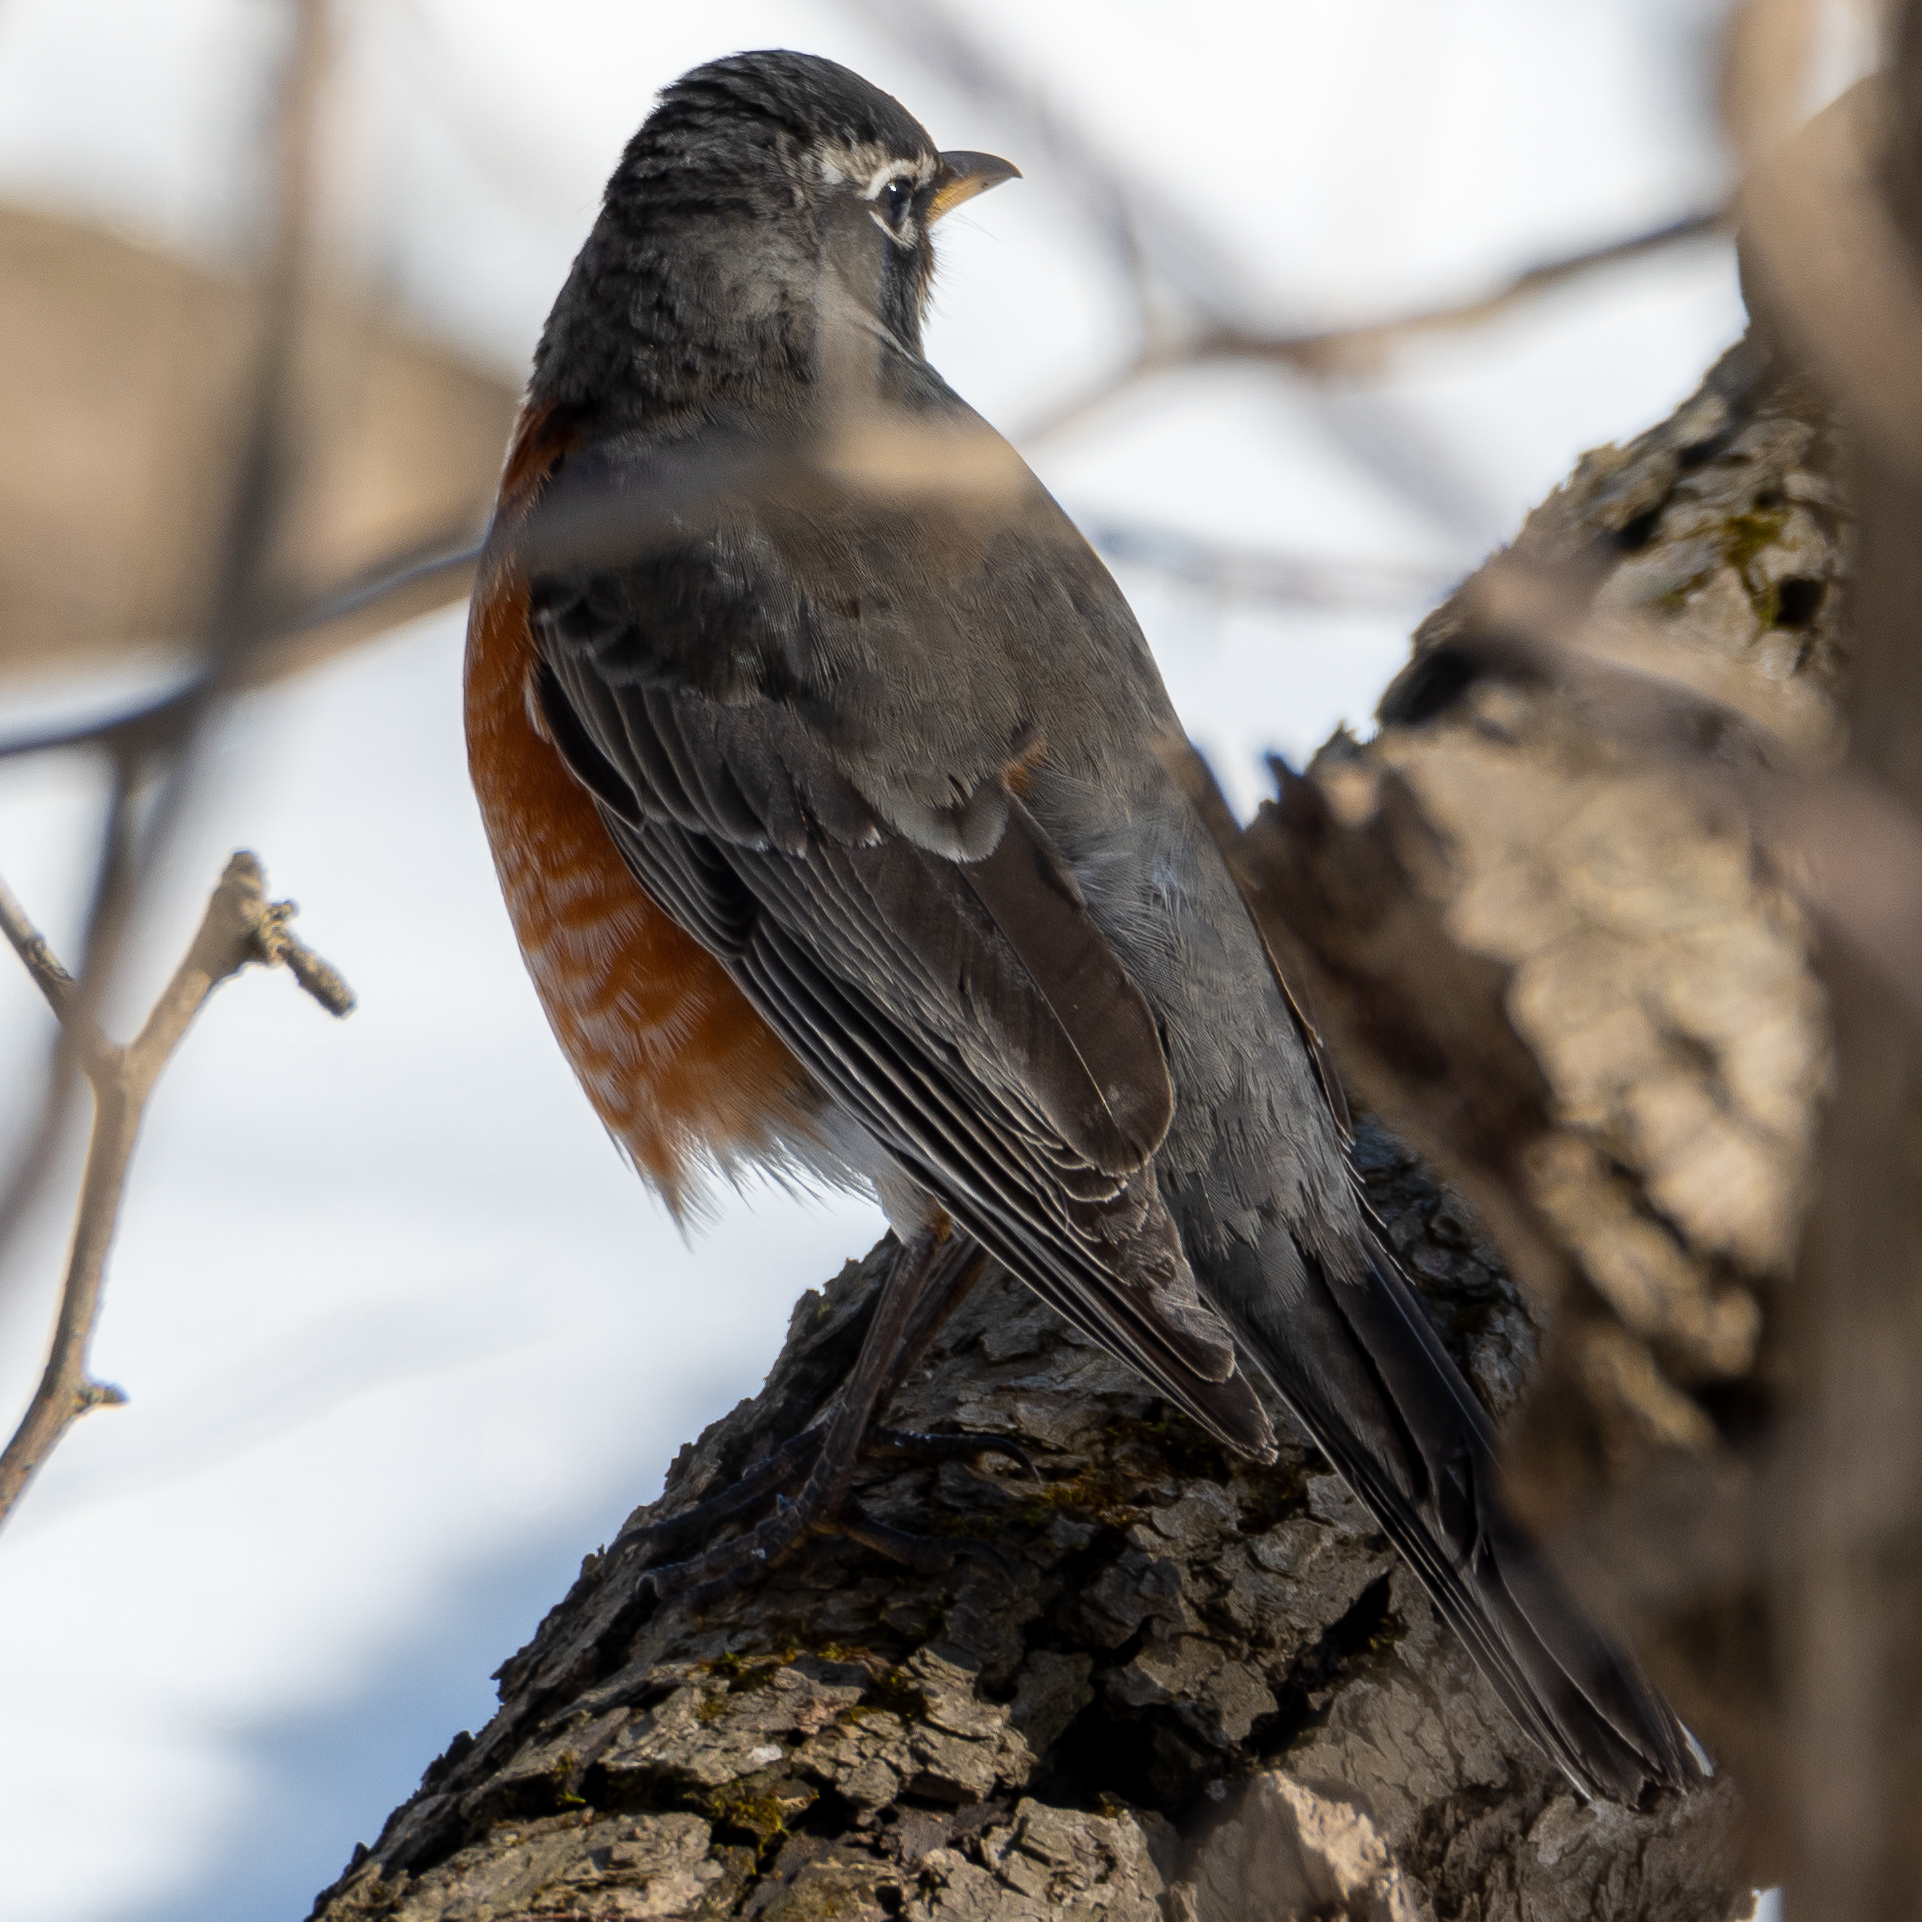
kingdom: Animalia
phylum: Chordata
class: Aves
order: Passeriformes
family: Turdidae
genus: Turdus
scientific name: Turdus migratorius
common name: American robin
